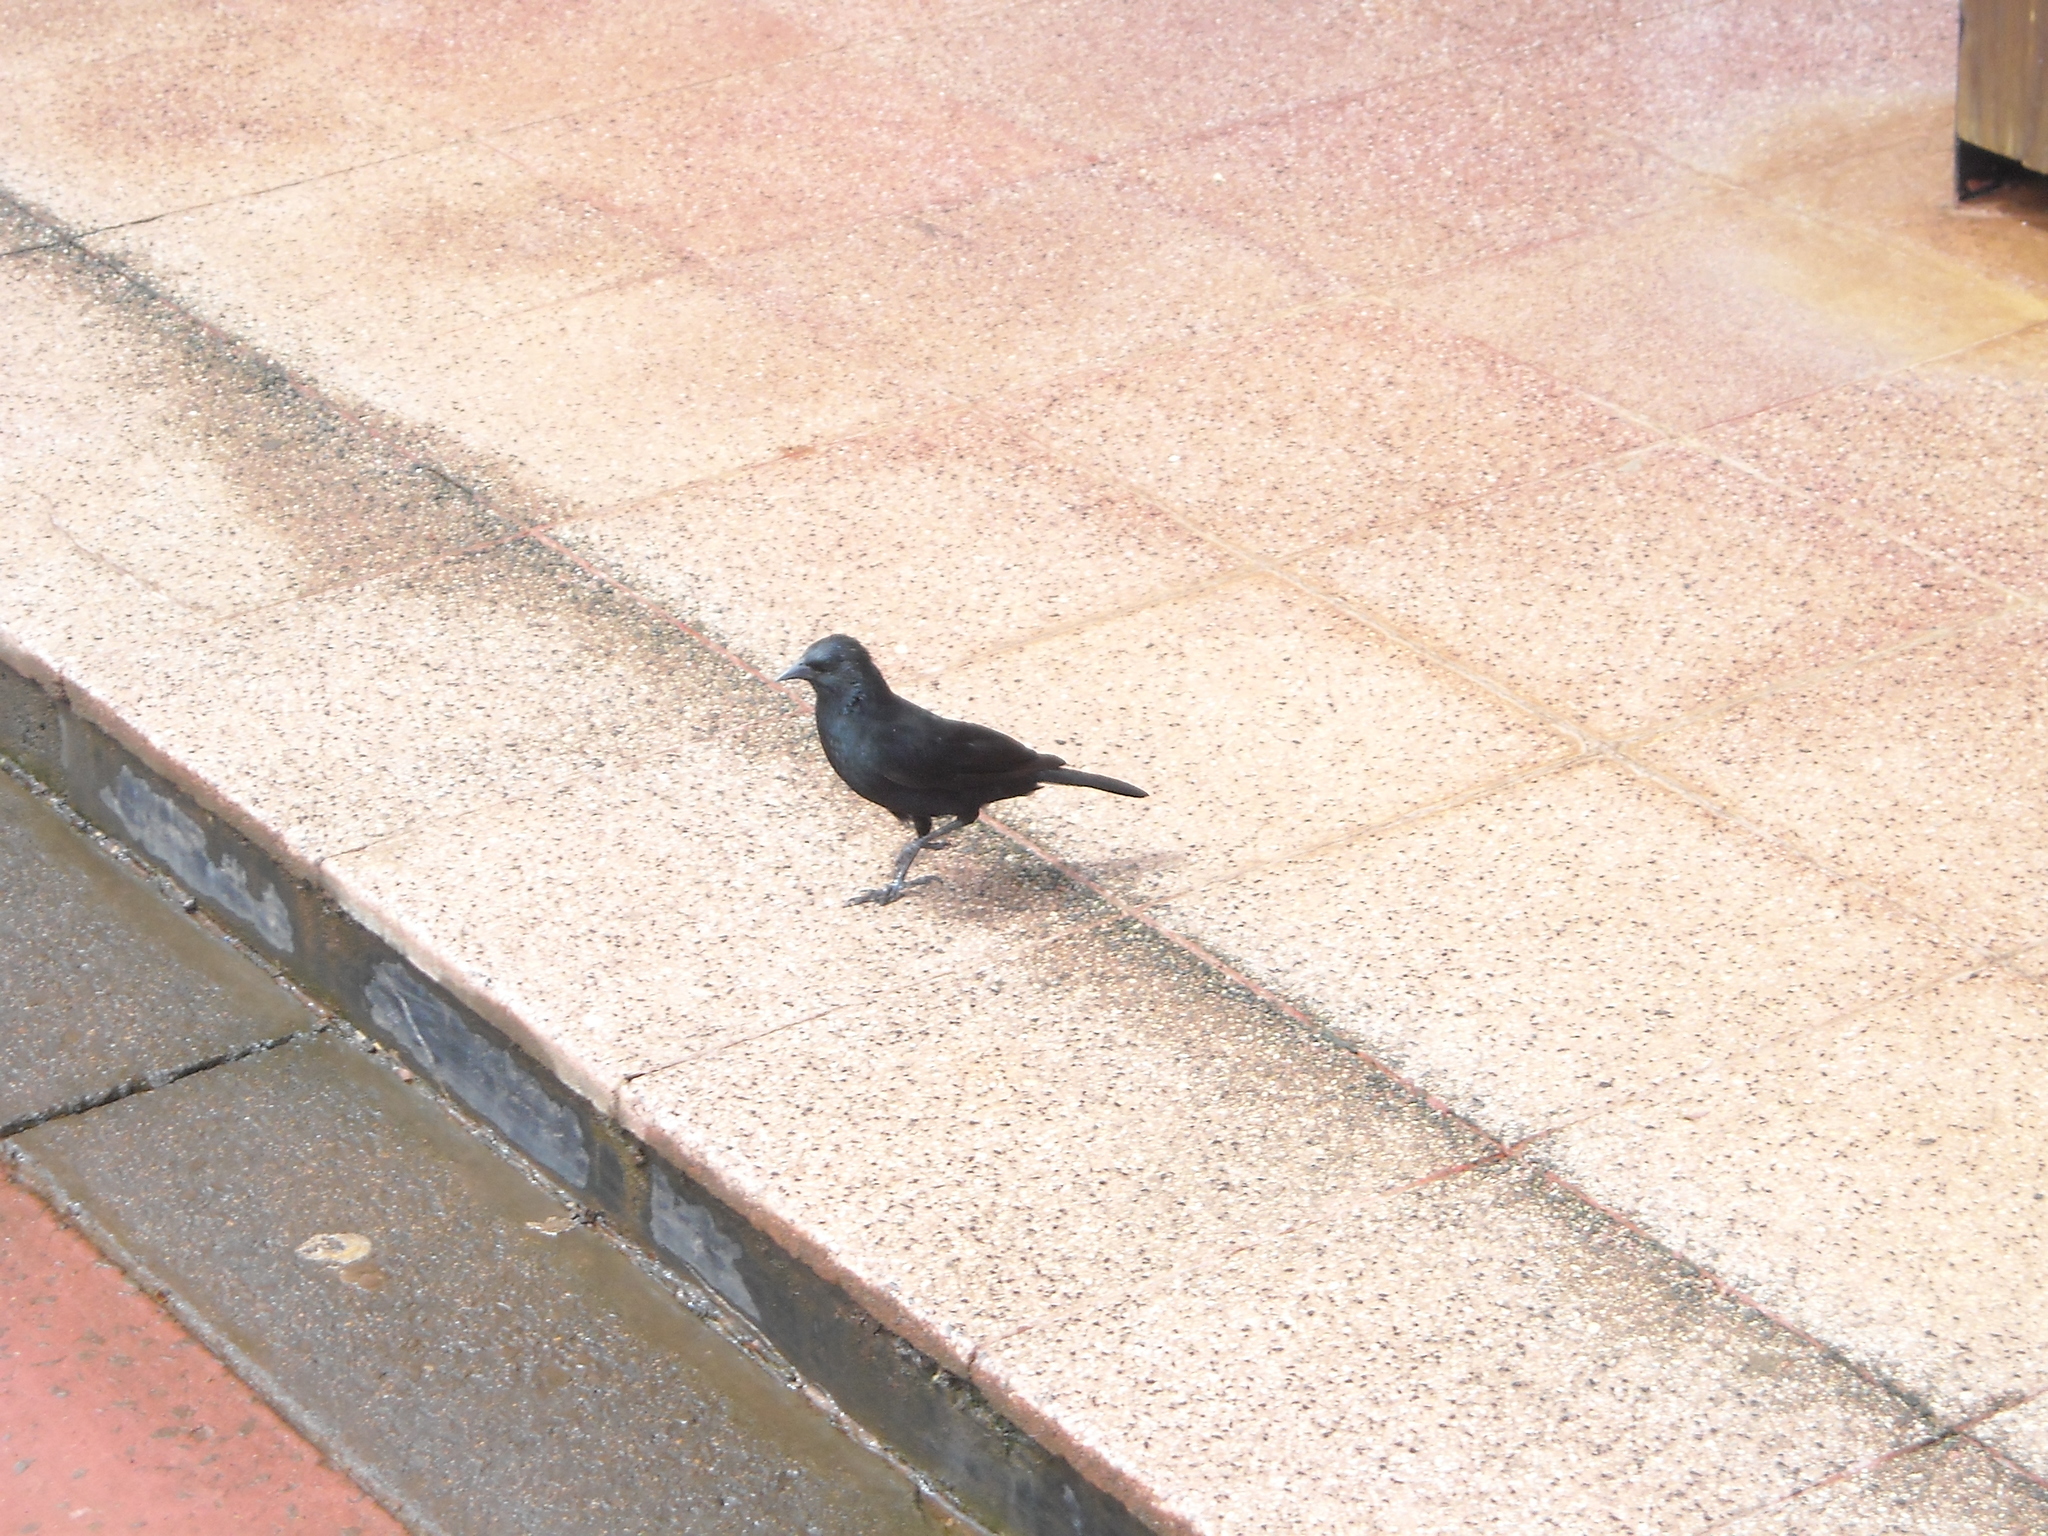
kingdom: Animalia
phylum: Chordata
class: Aves
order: Passeriformes
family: Icteridae
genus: Gnorimopsar
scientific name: Gnorimopsar chopi
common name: Chopi blackbird
